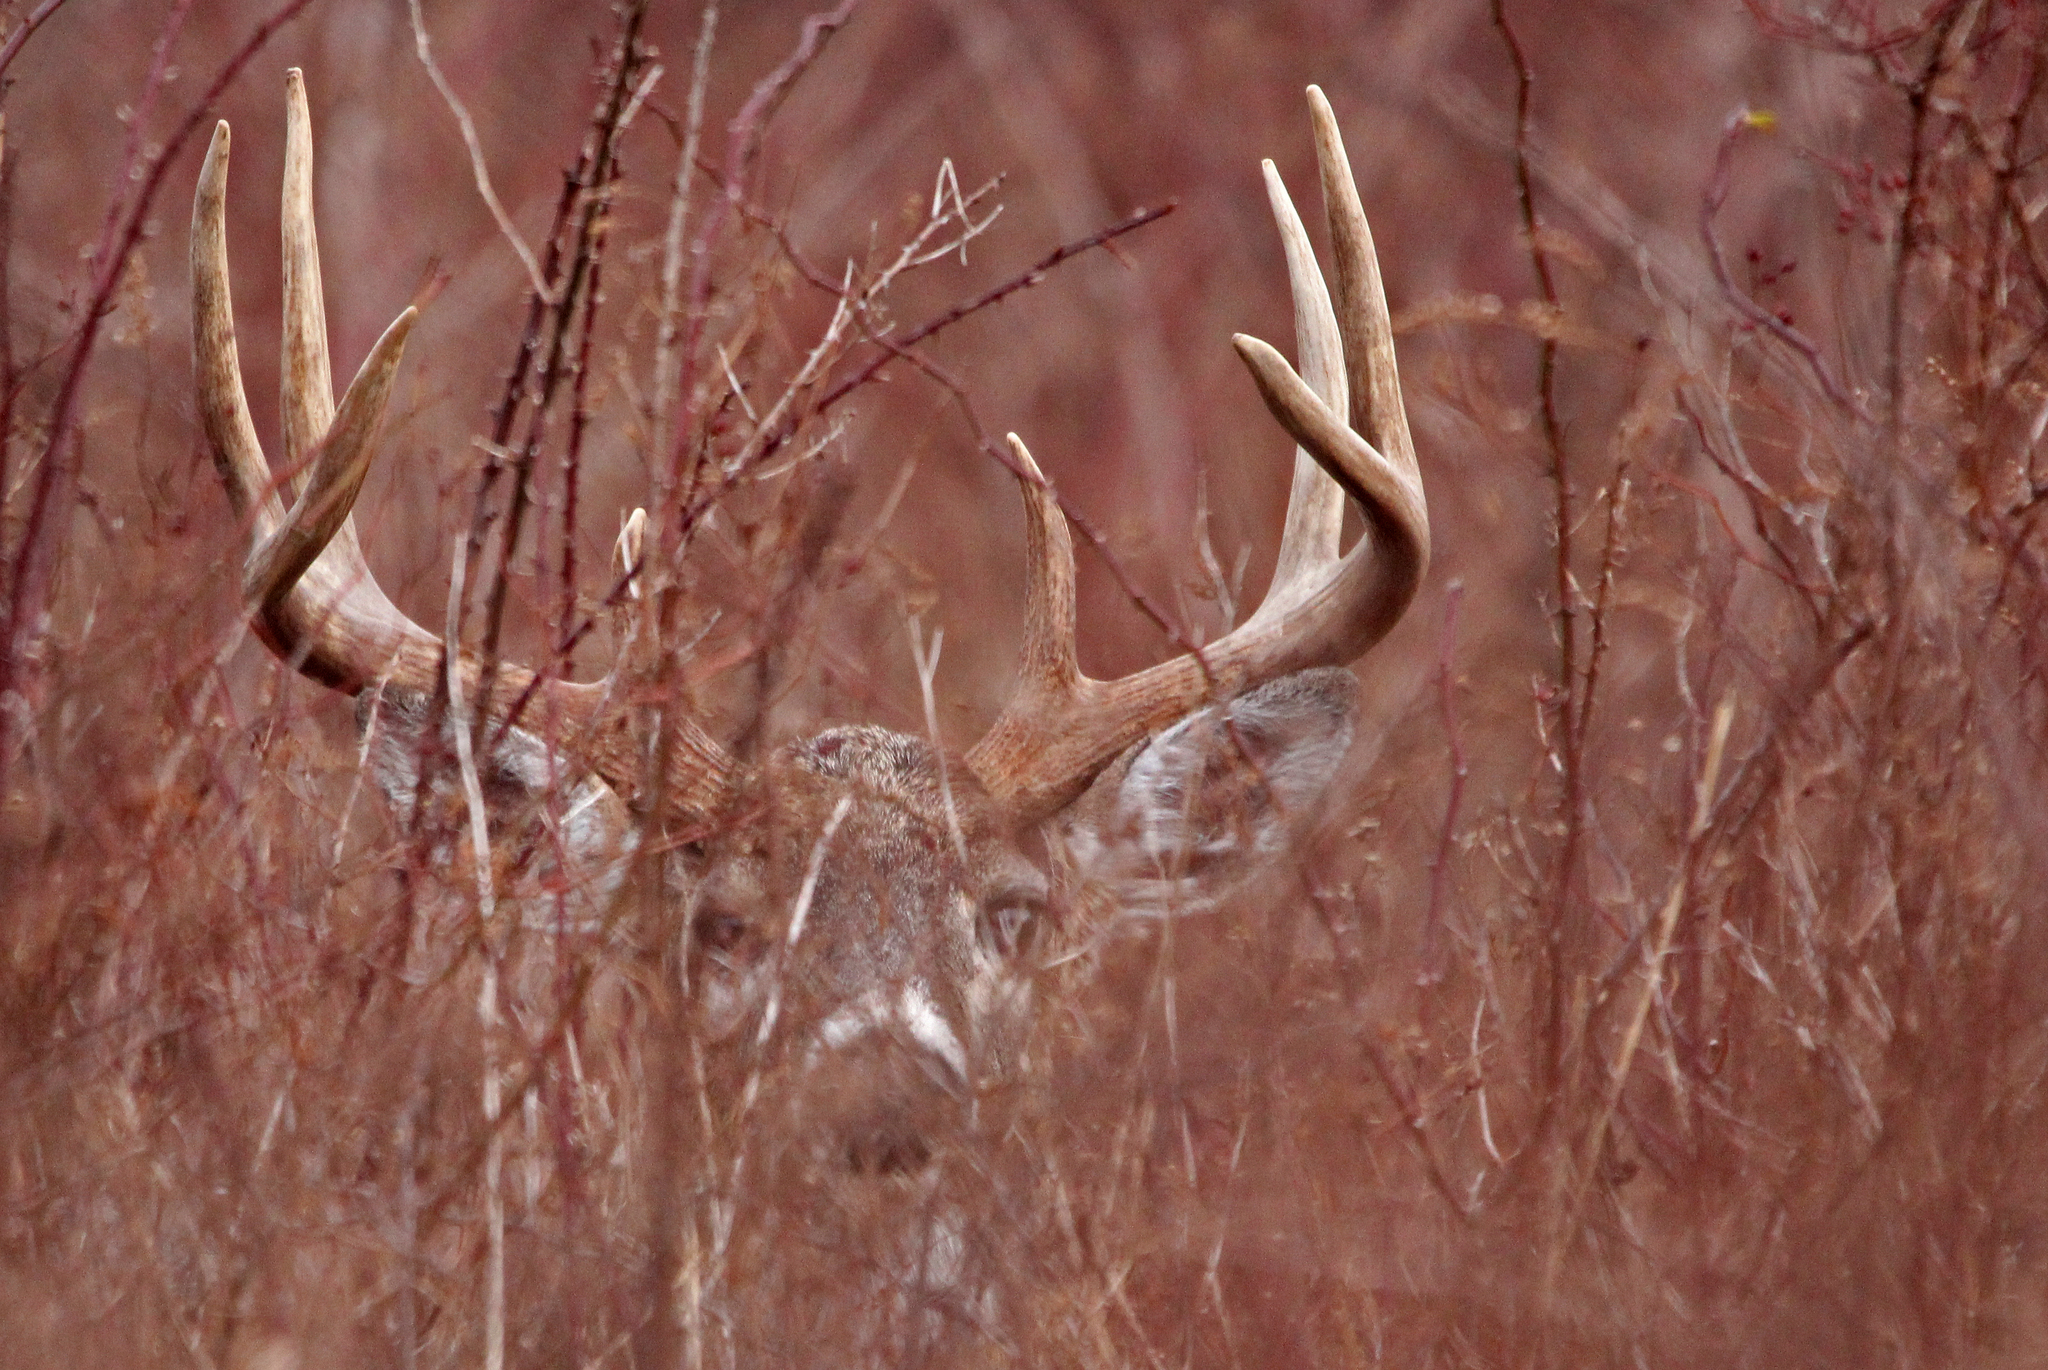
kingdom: Animalia
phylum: Chordata
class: Mammalia
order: Artiodactyla
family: Cervidae
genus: Odocoileus
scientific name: Odocoileus virginianus
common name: White-tailed deer
